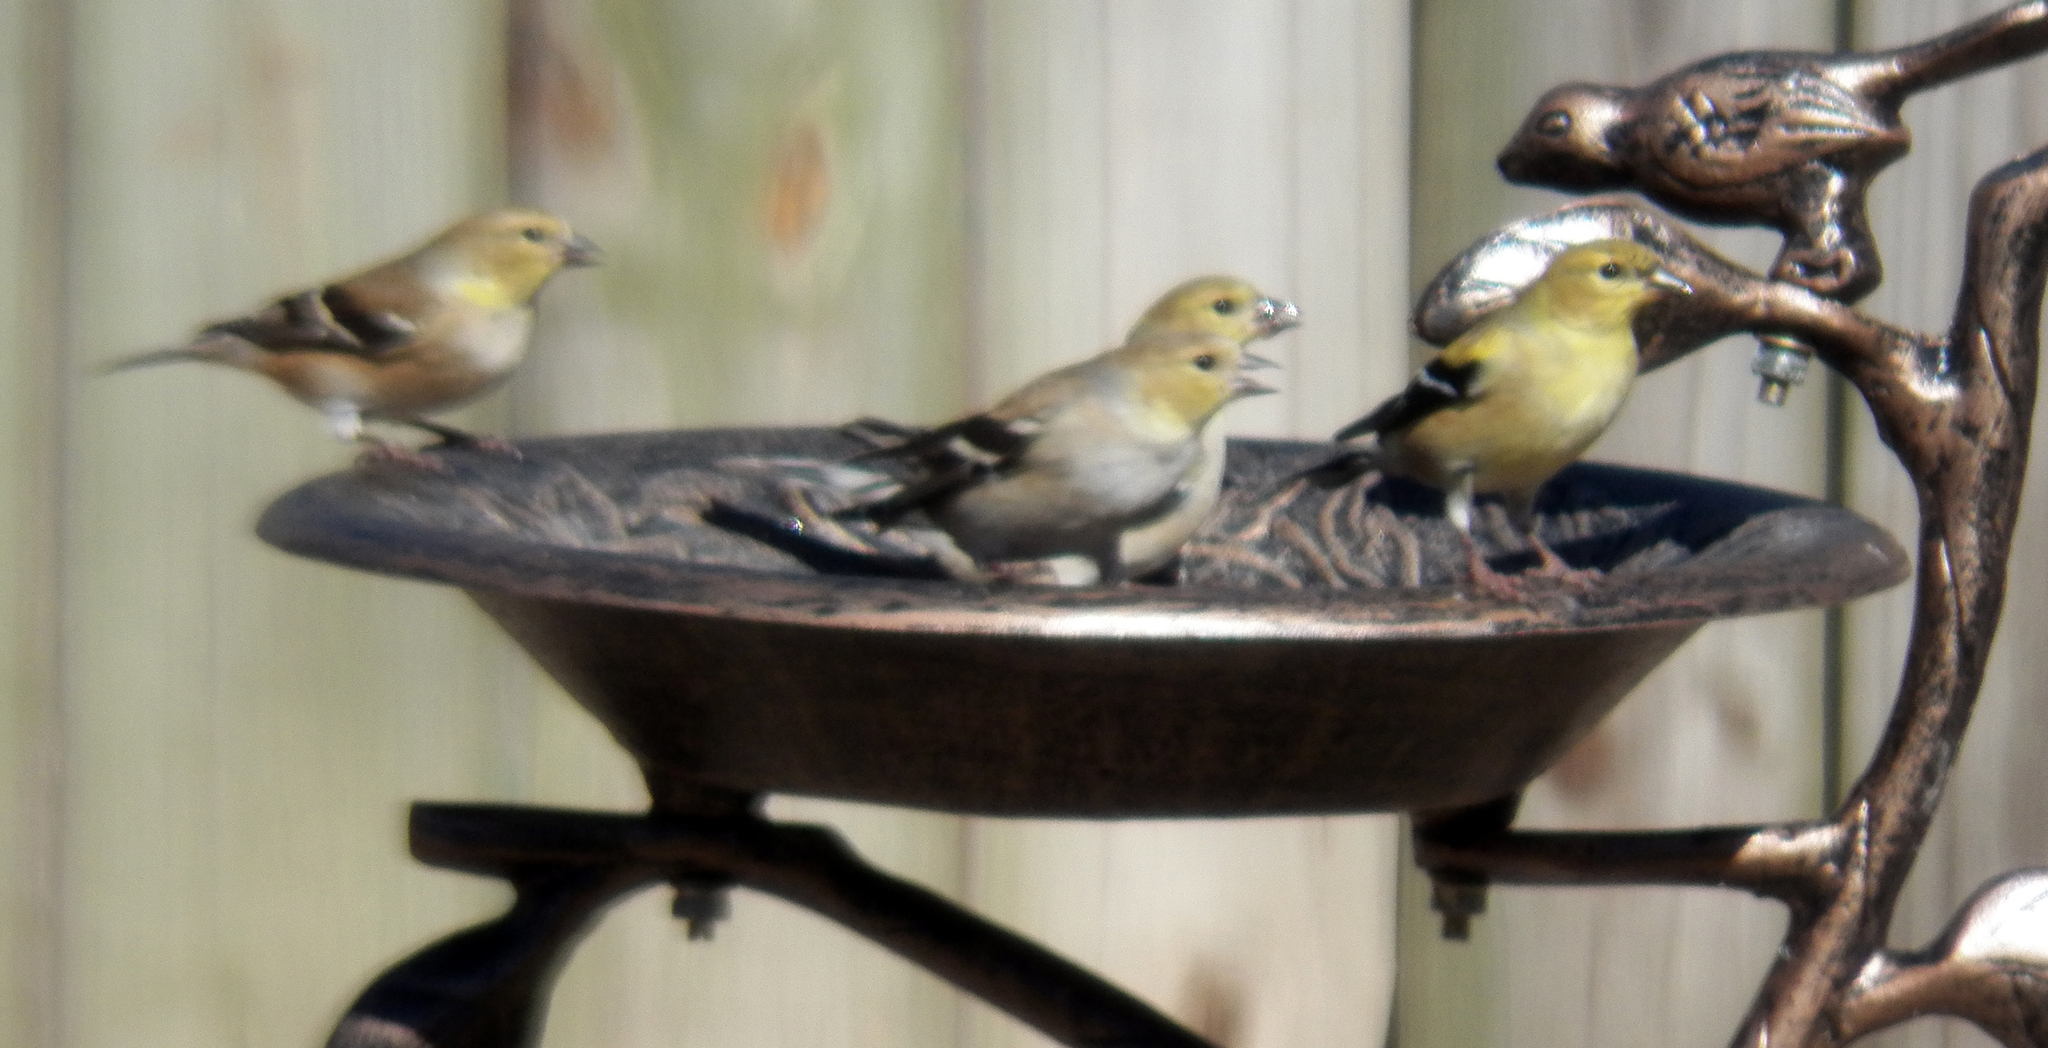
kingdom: Animalia
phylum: Chordata
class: Aves
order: Passeriformes
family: Fringillidae
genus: Spinus
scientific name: Spinus tristis
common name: American goldfinch
